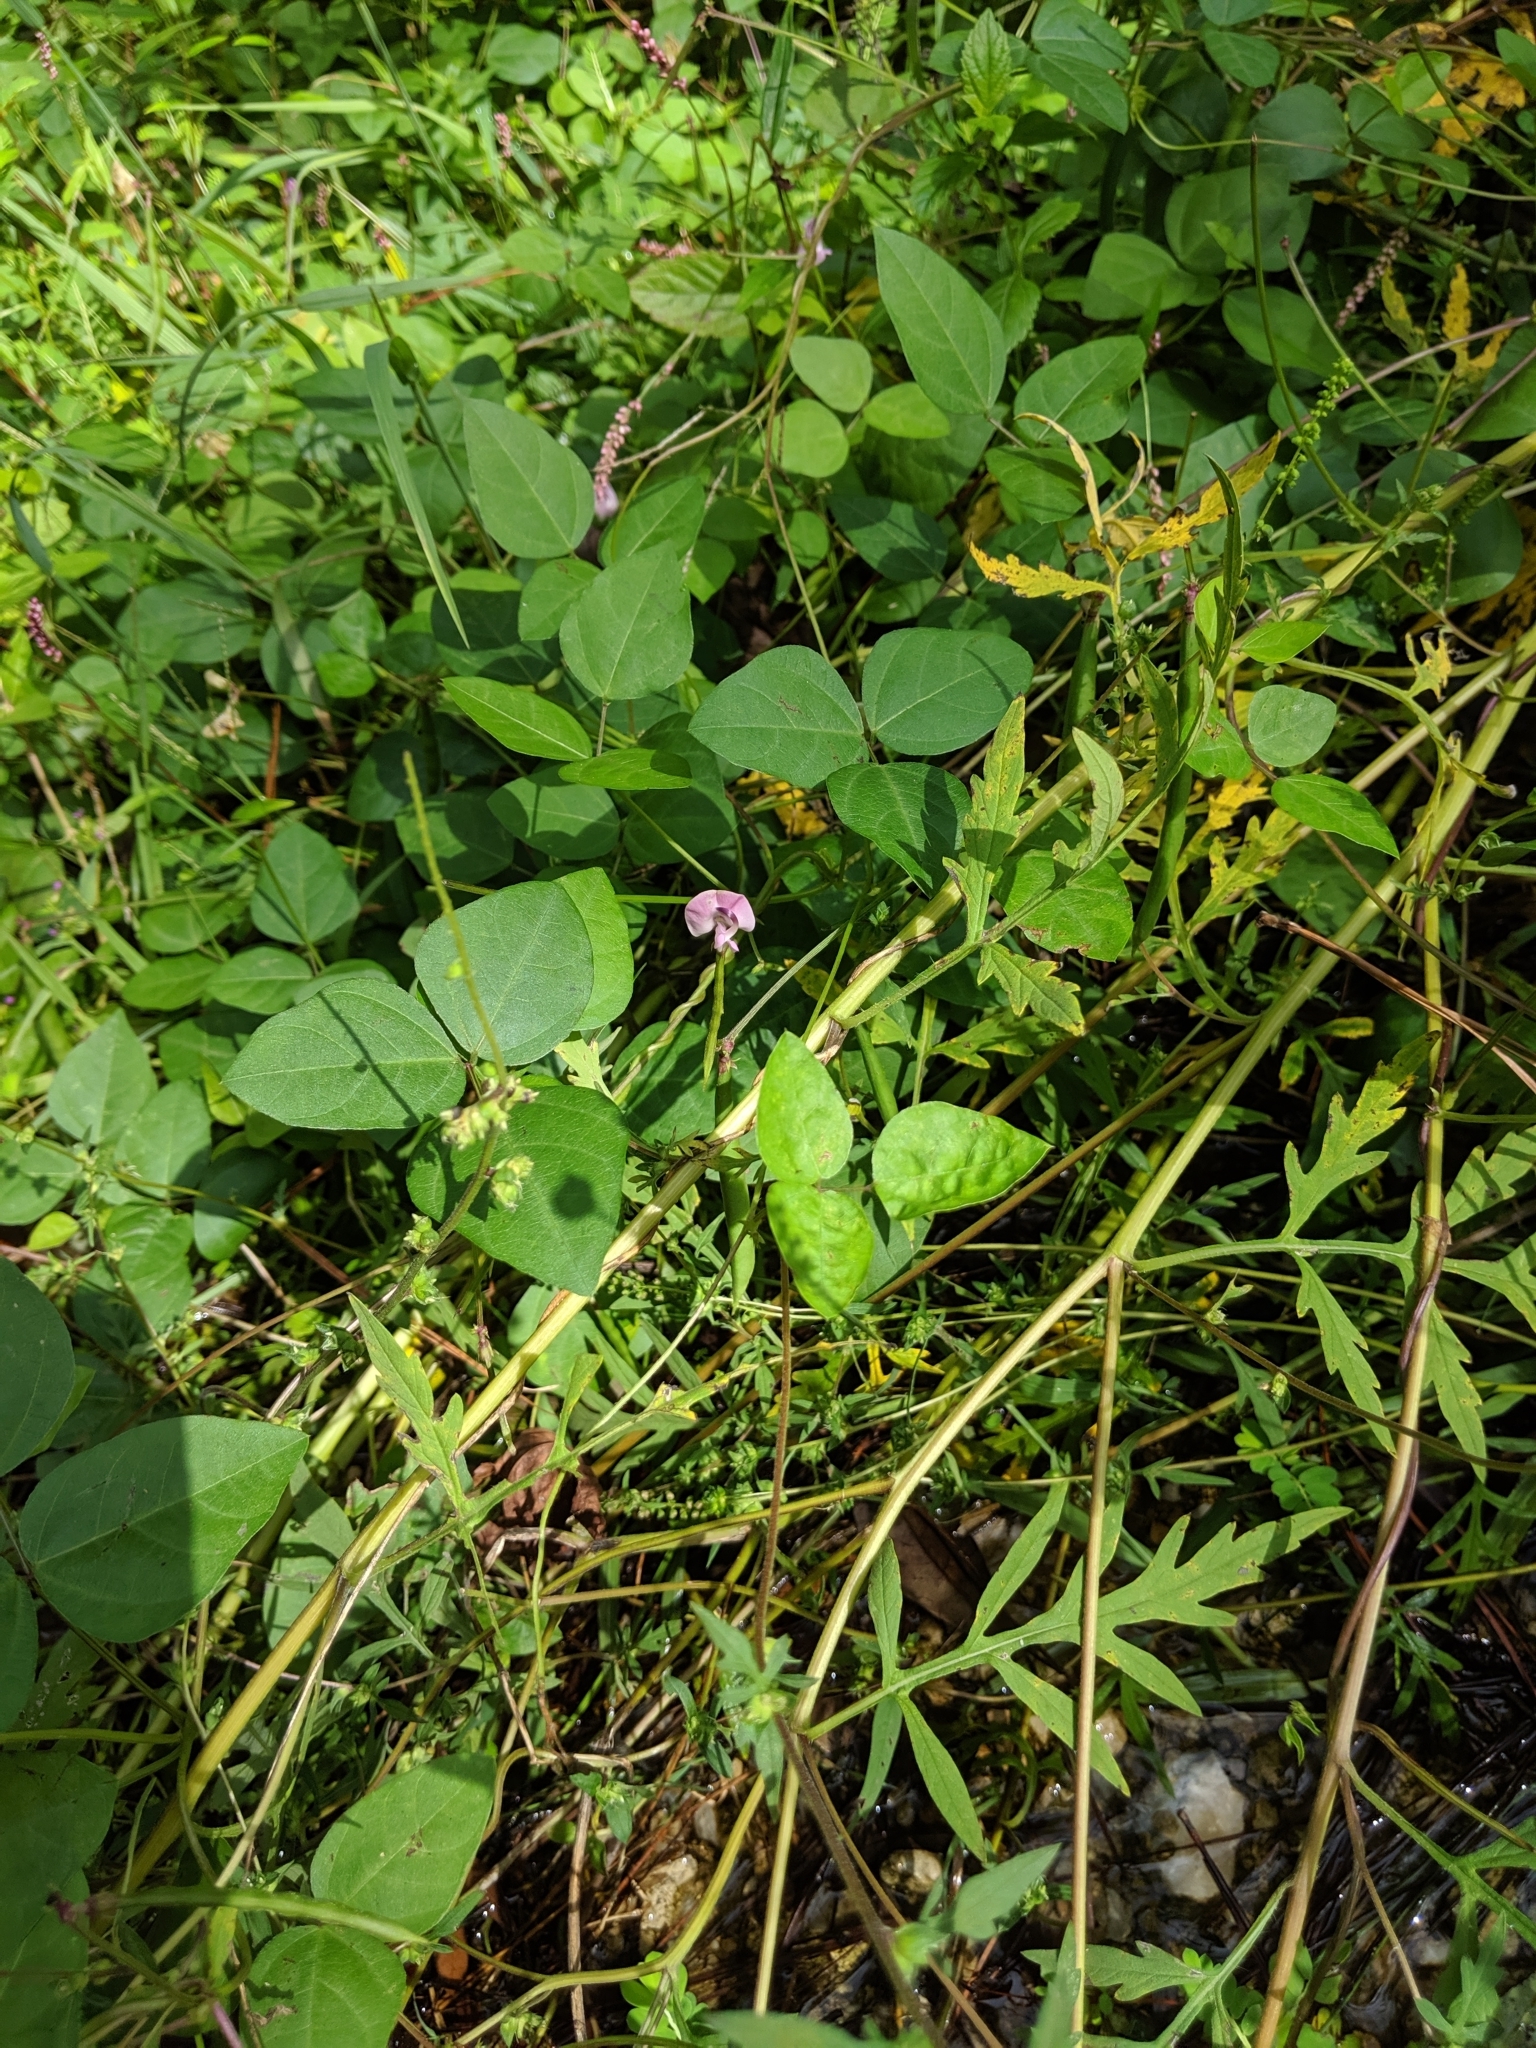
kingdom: Plantae
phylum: Tracheophyta
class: Magnoliopsida
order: Fabales
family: Fabaceae
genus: Strophostyles
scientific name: Strophostyles helvola
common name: Trailing wild bean
